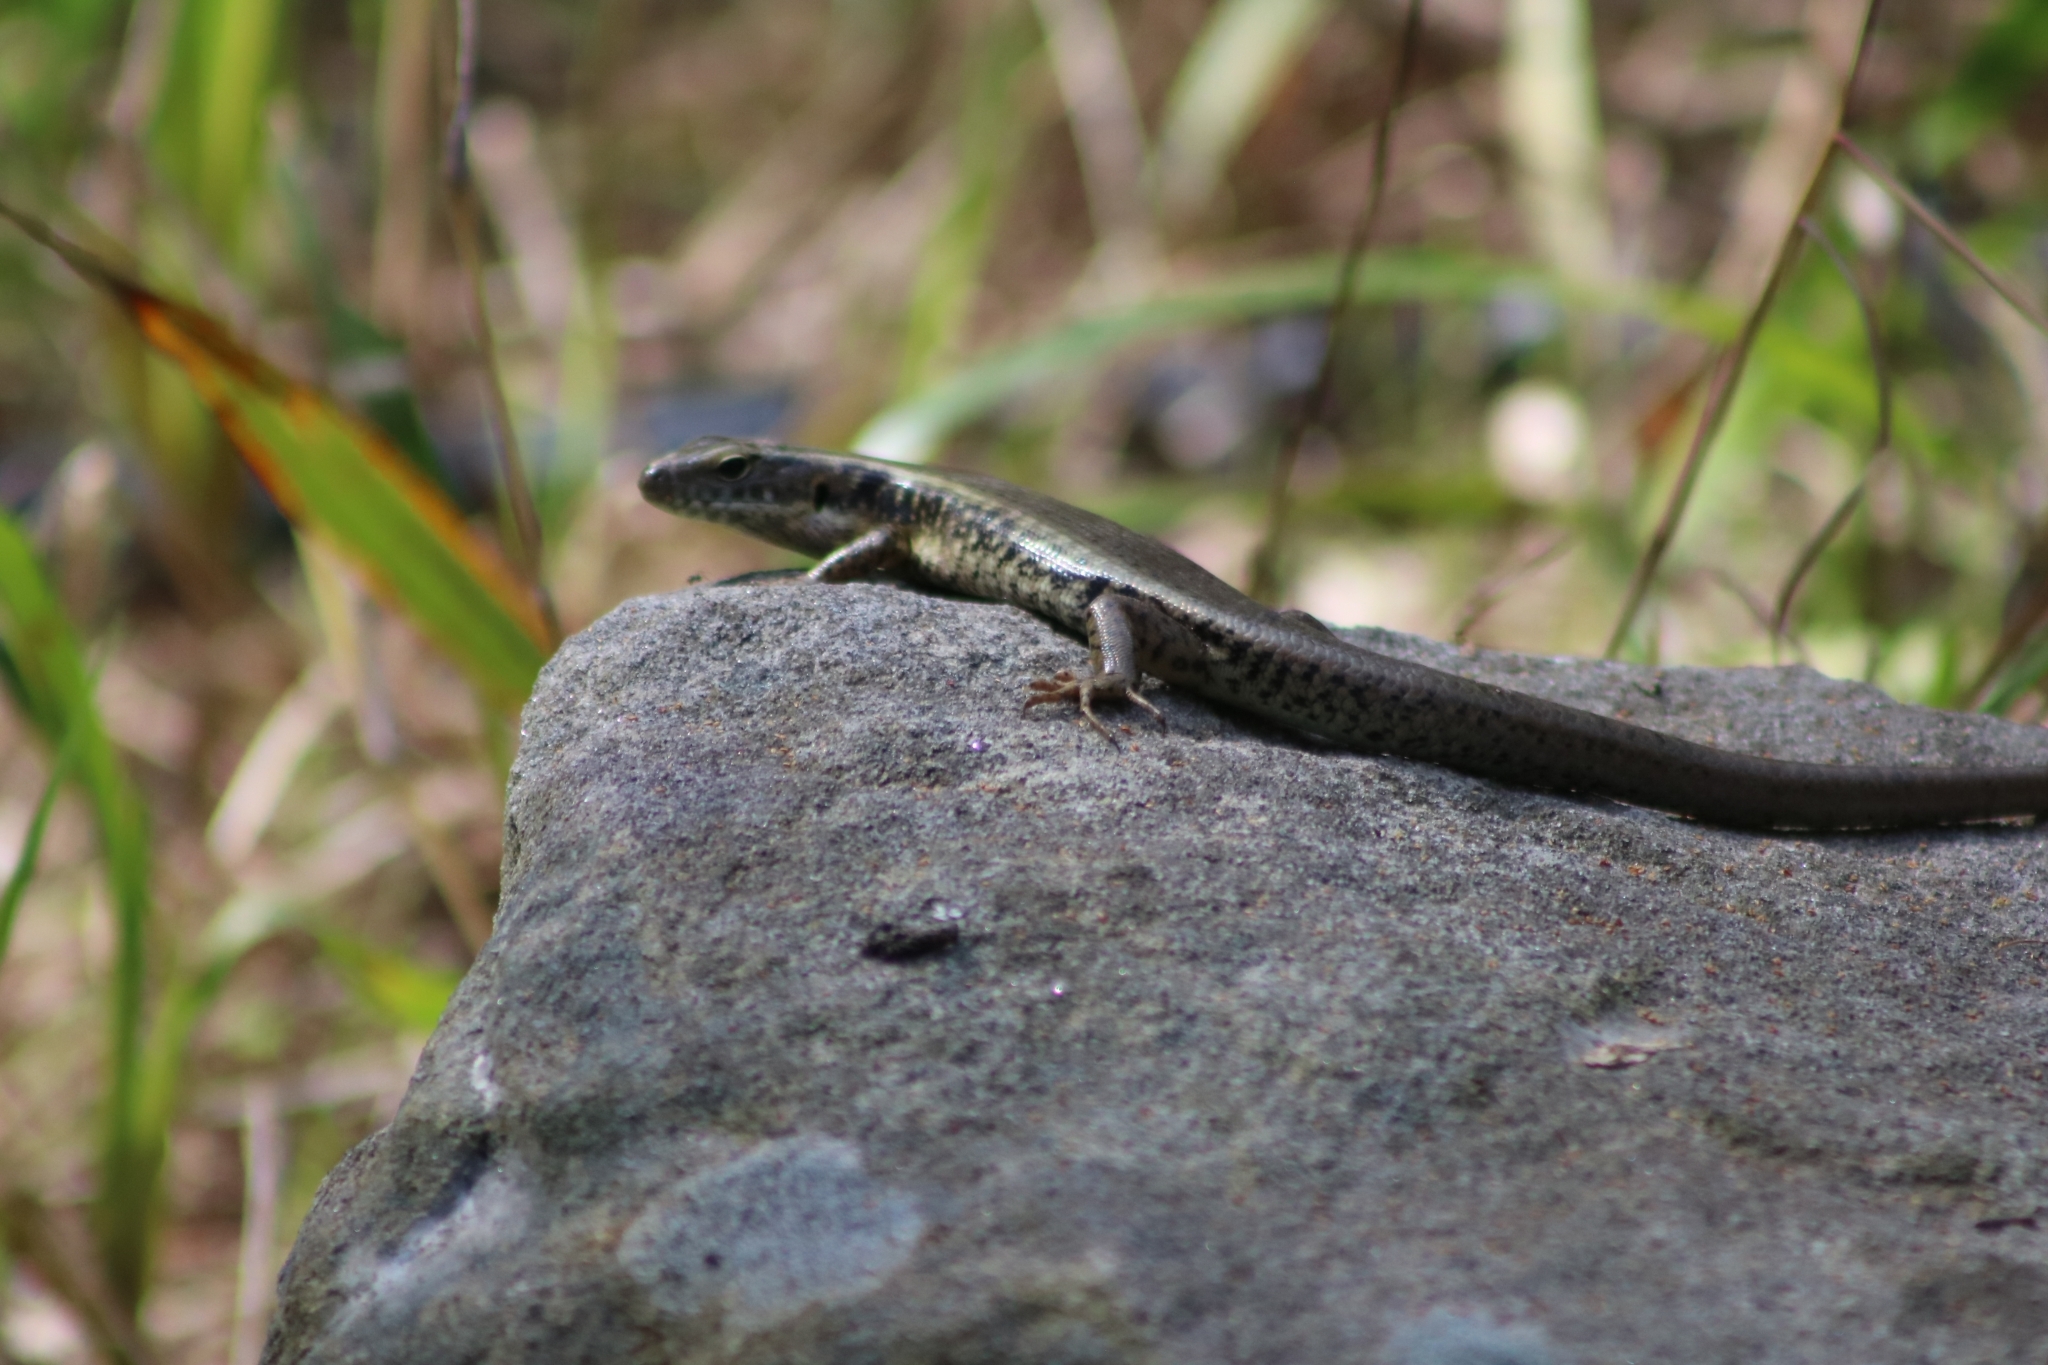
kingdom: Animalia
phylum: Chordata
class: Squamata
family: Scincidae
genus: Eulamprus
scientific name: Eulamprus quoyii
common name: Eastern water skink
